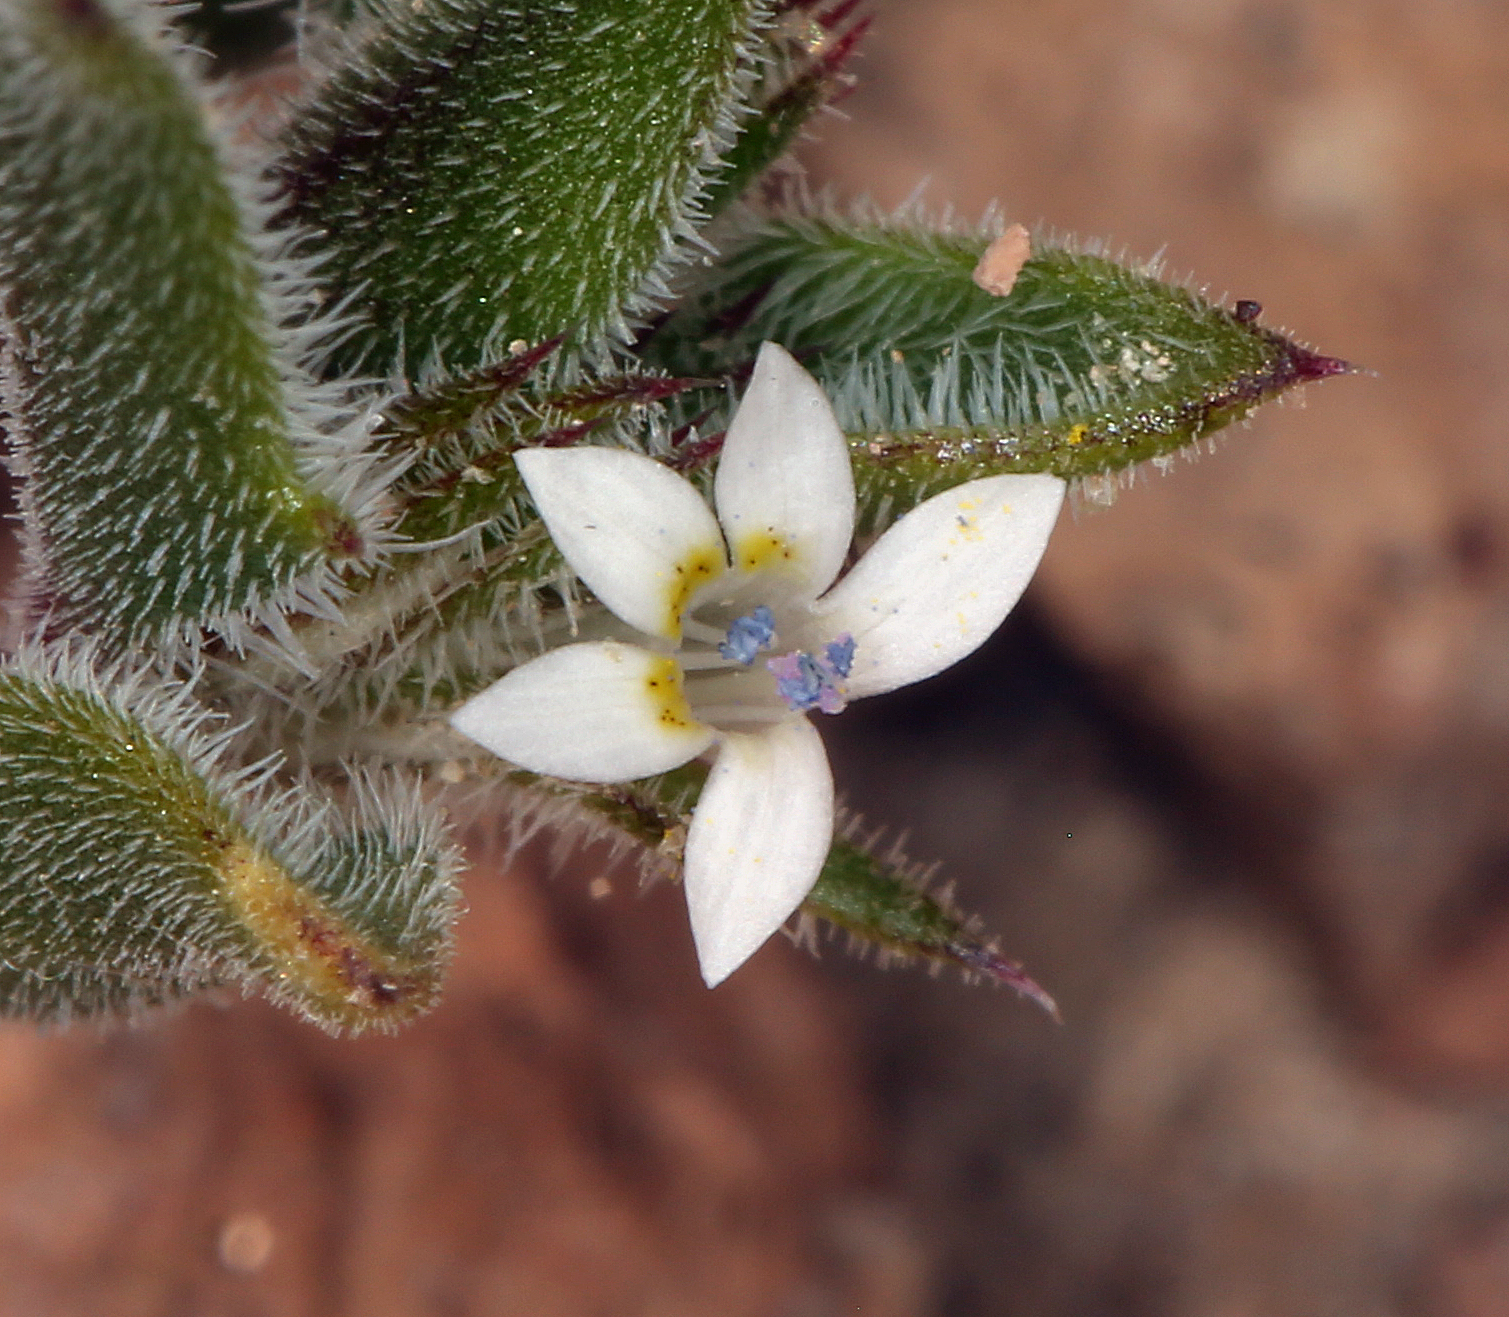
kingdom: Plantae
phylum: Tracheophyta
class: Magnoliopsida
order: Ericales
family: Polemoniaceae
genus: Loeseliastrum
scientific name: Loeseliastrum depressum
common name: Depressed ipomopsis
